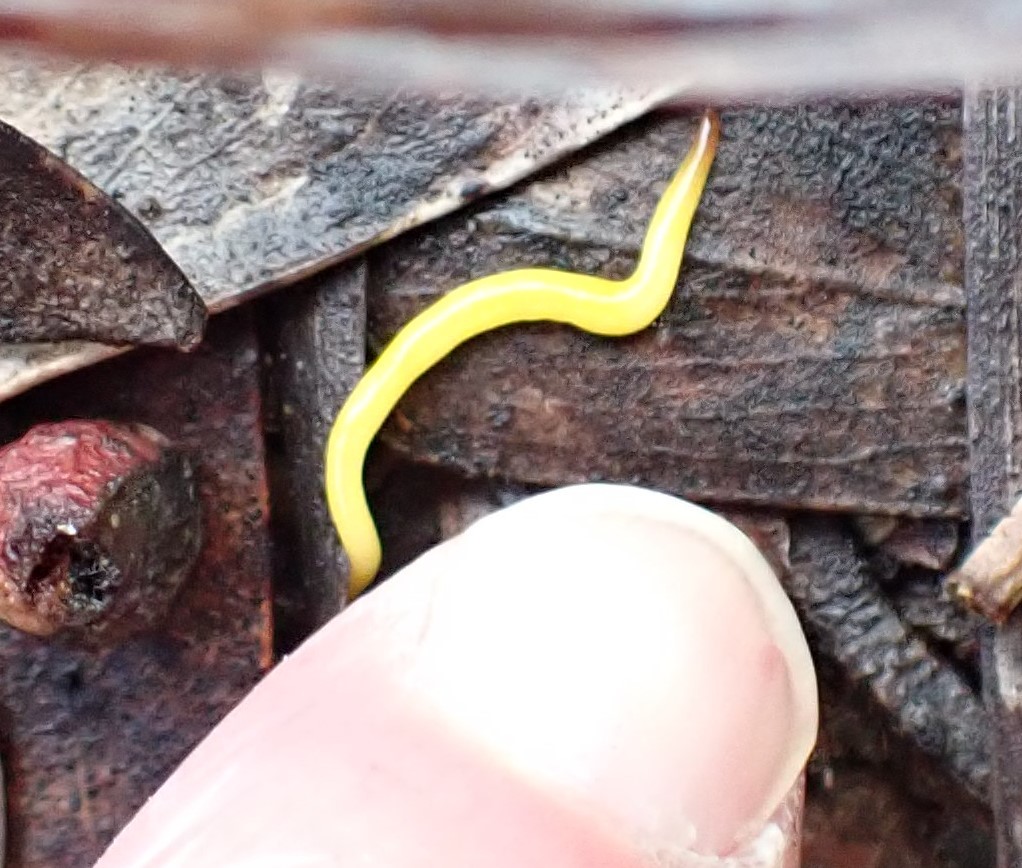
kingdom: Animalia
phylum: Platyhelminthes
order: Tricladida
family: Geoplanidae
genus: Fletchamia
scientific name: Fletchamia sugdeni
